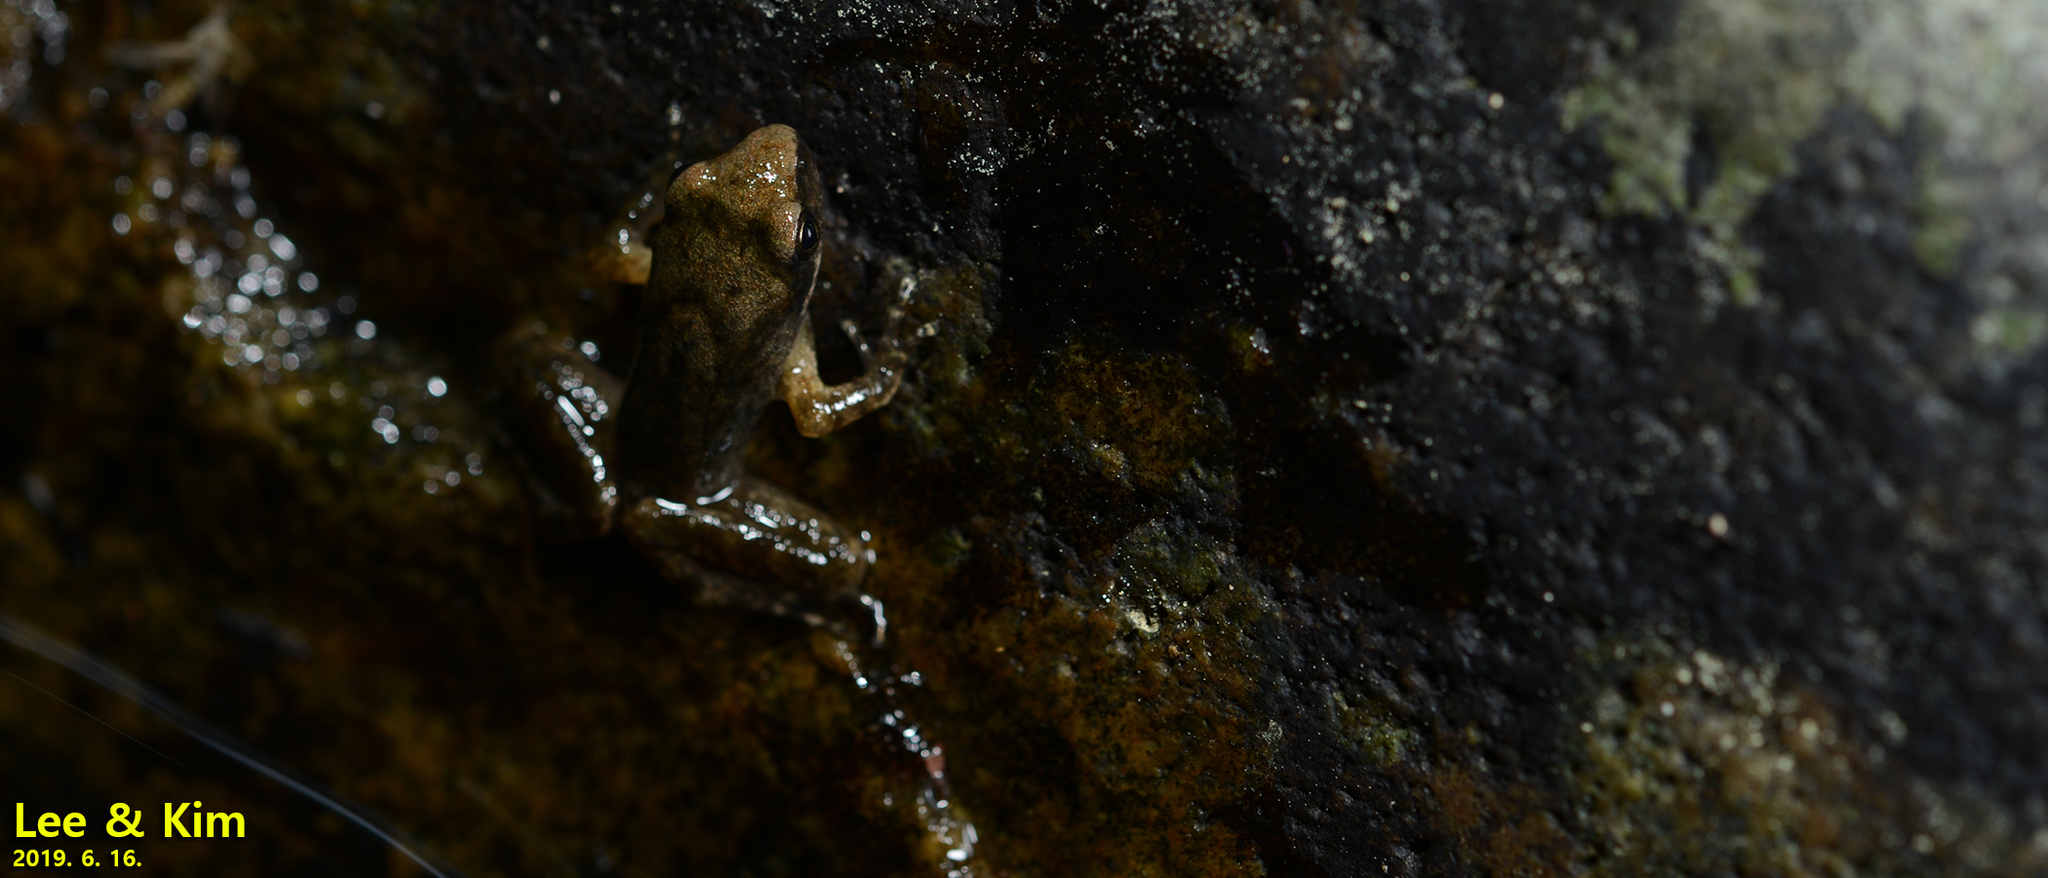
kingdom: Animalia
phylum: Chordata
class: Amphibia
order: Anura
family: Ranidae
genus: Rana
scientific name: Rana huanrenensis
